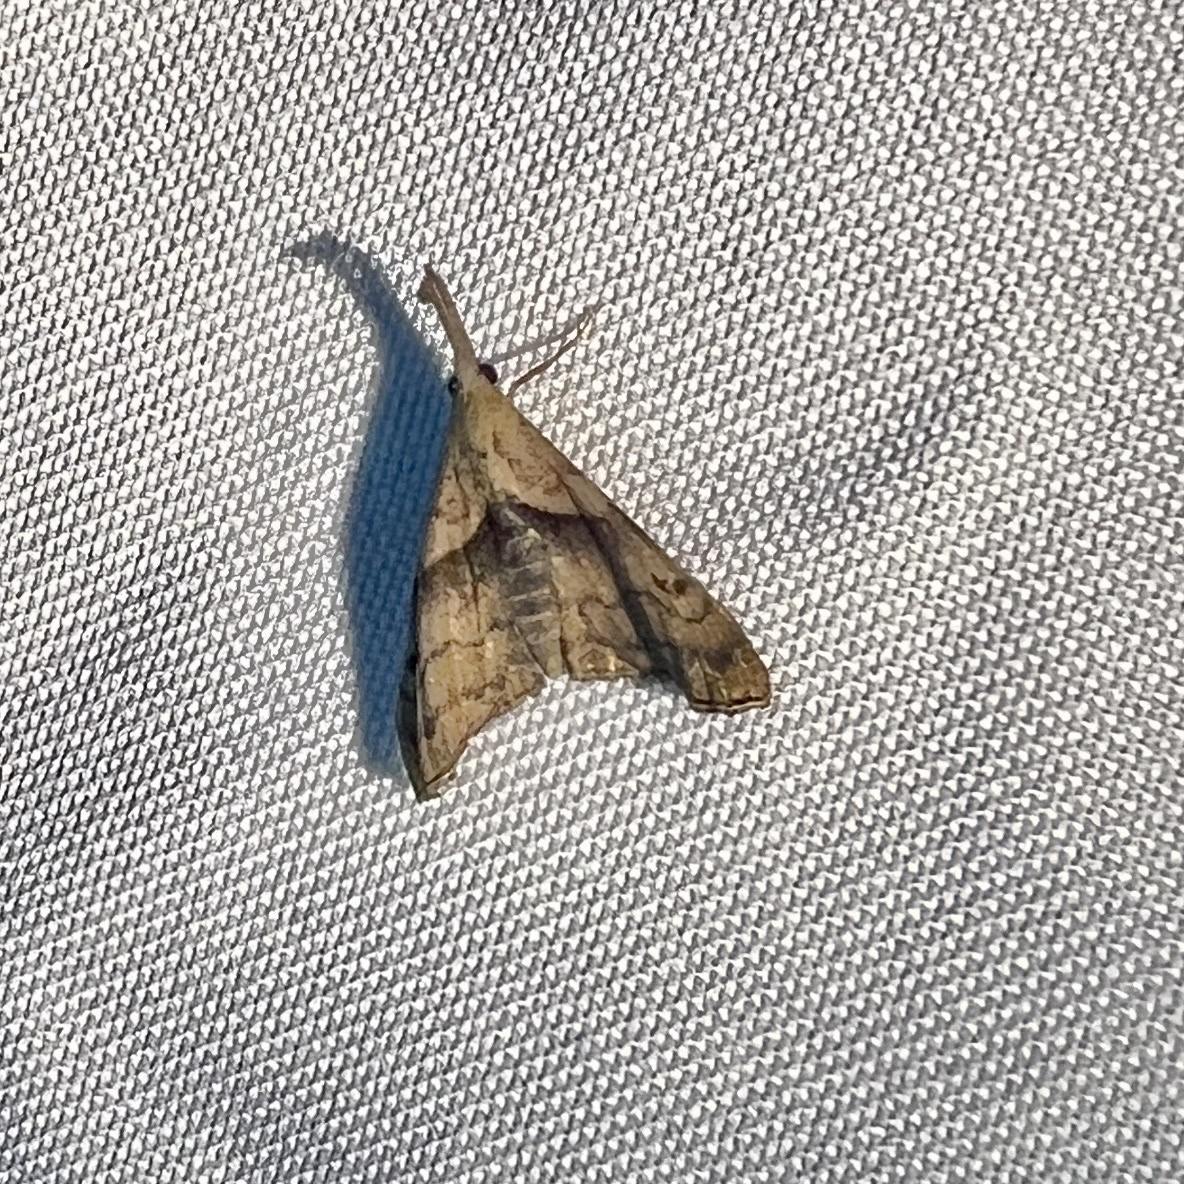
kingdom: Animalia
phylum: Arthropoda
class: Insecta
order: Lepidoptera
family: Erebidae
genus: Palthis
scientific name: Palthis angulalis
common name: Dark-spotted palthis moth
